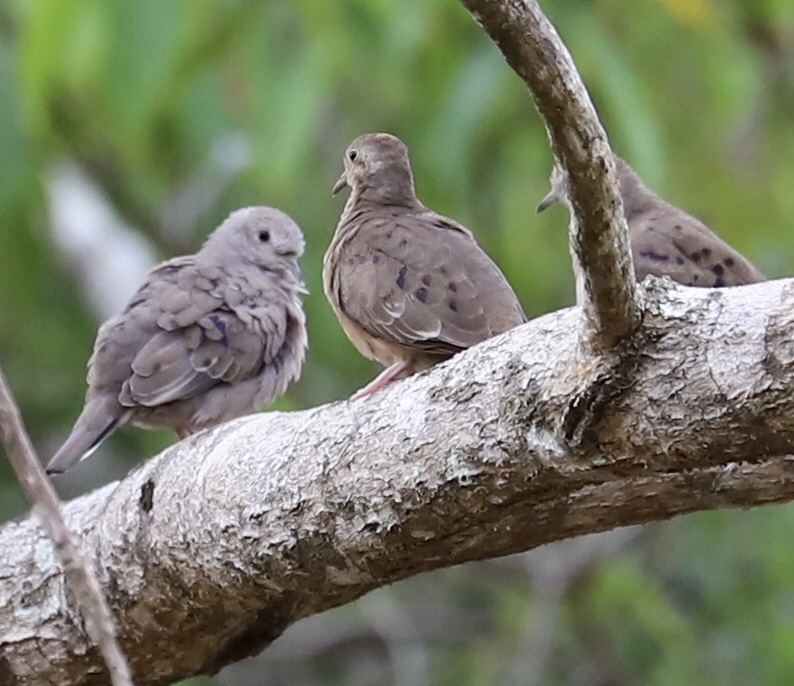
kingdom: Animalia
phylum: Chordata
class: Aves
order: Columbiformes
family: Columbidae
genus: Columbina
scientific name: Columbina minuta
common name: Plain-breasted ground dove
